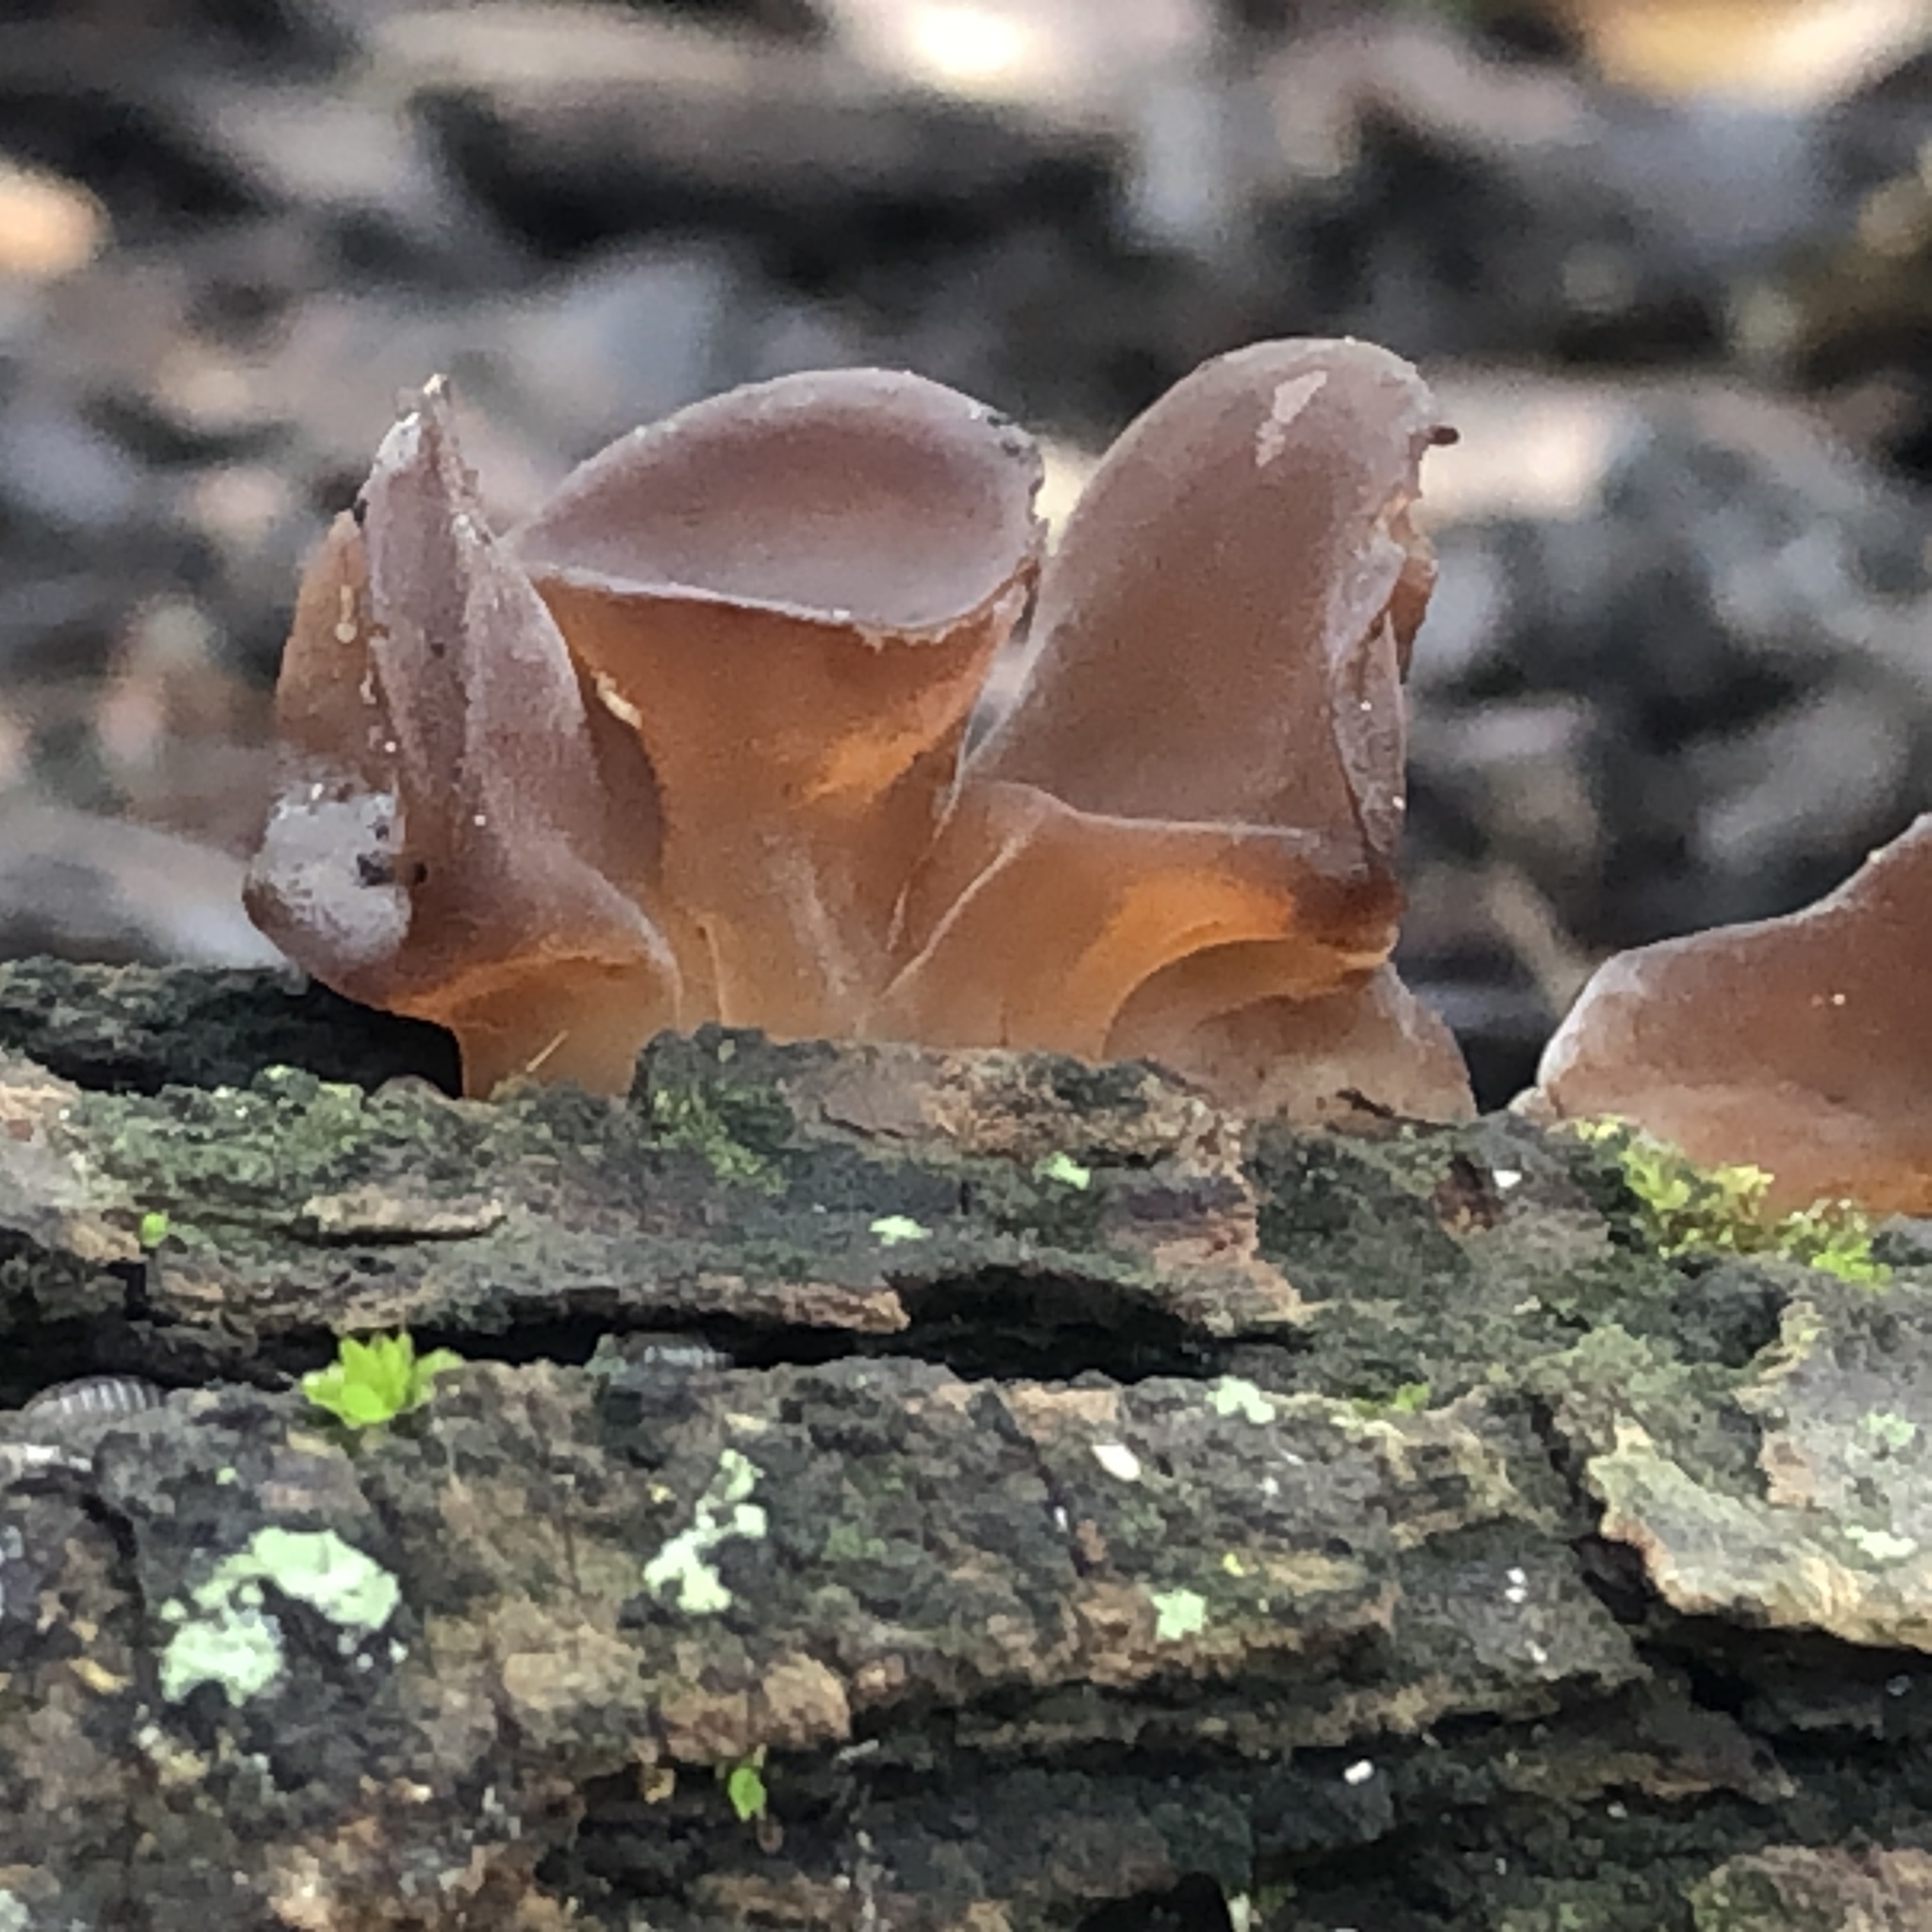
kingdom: Fungi
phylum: Basidiomycota
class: Agaricomycetes
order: Auriculariales
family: Auriculariaceae
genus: Auricularia
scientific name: Auricularia
